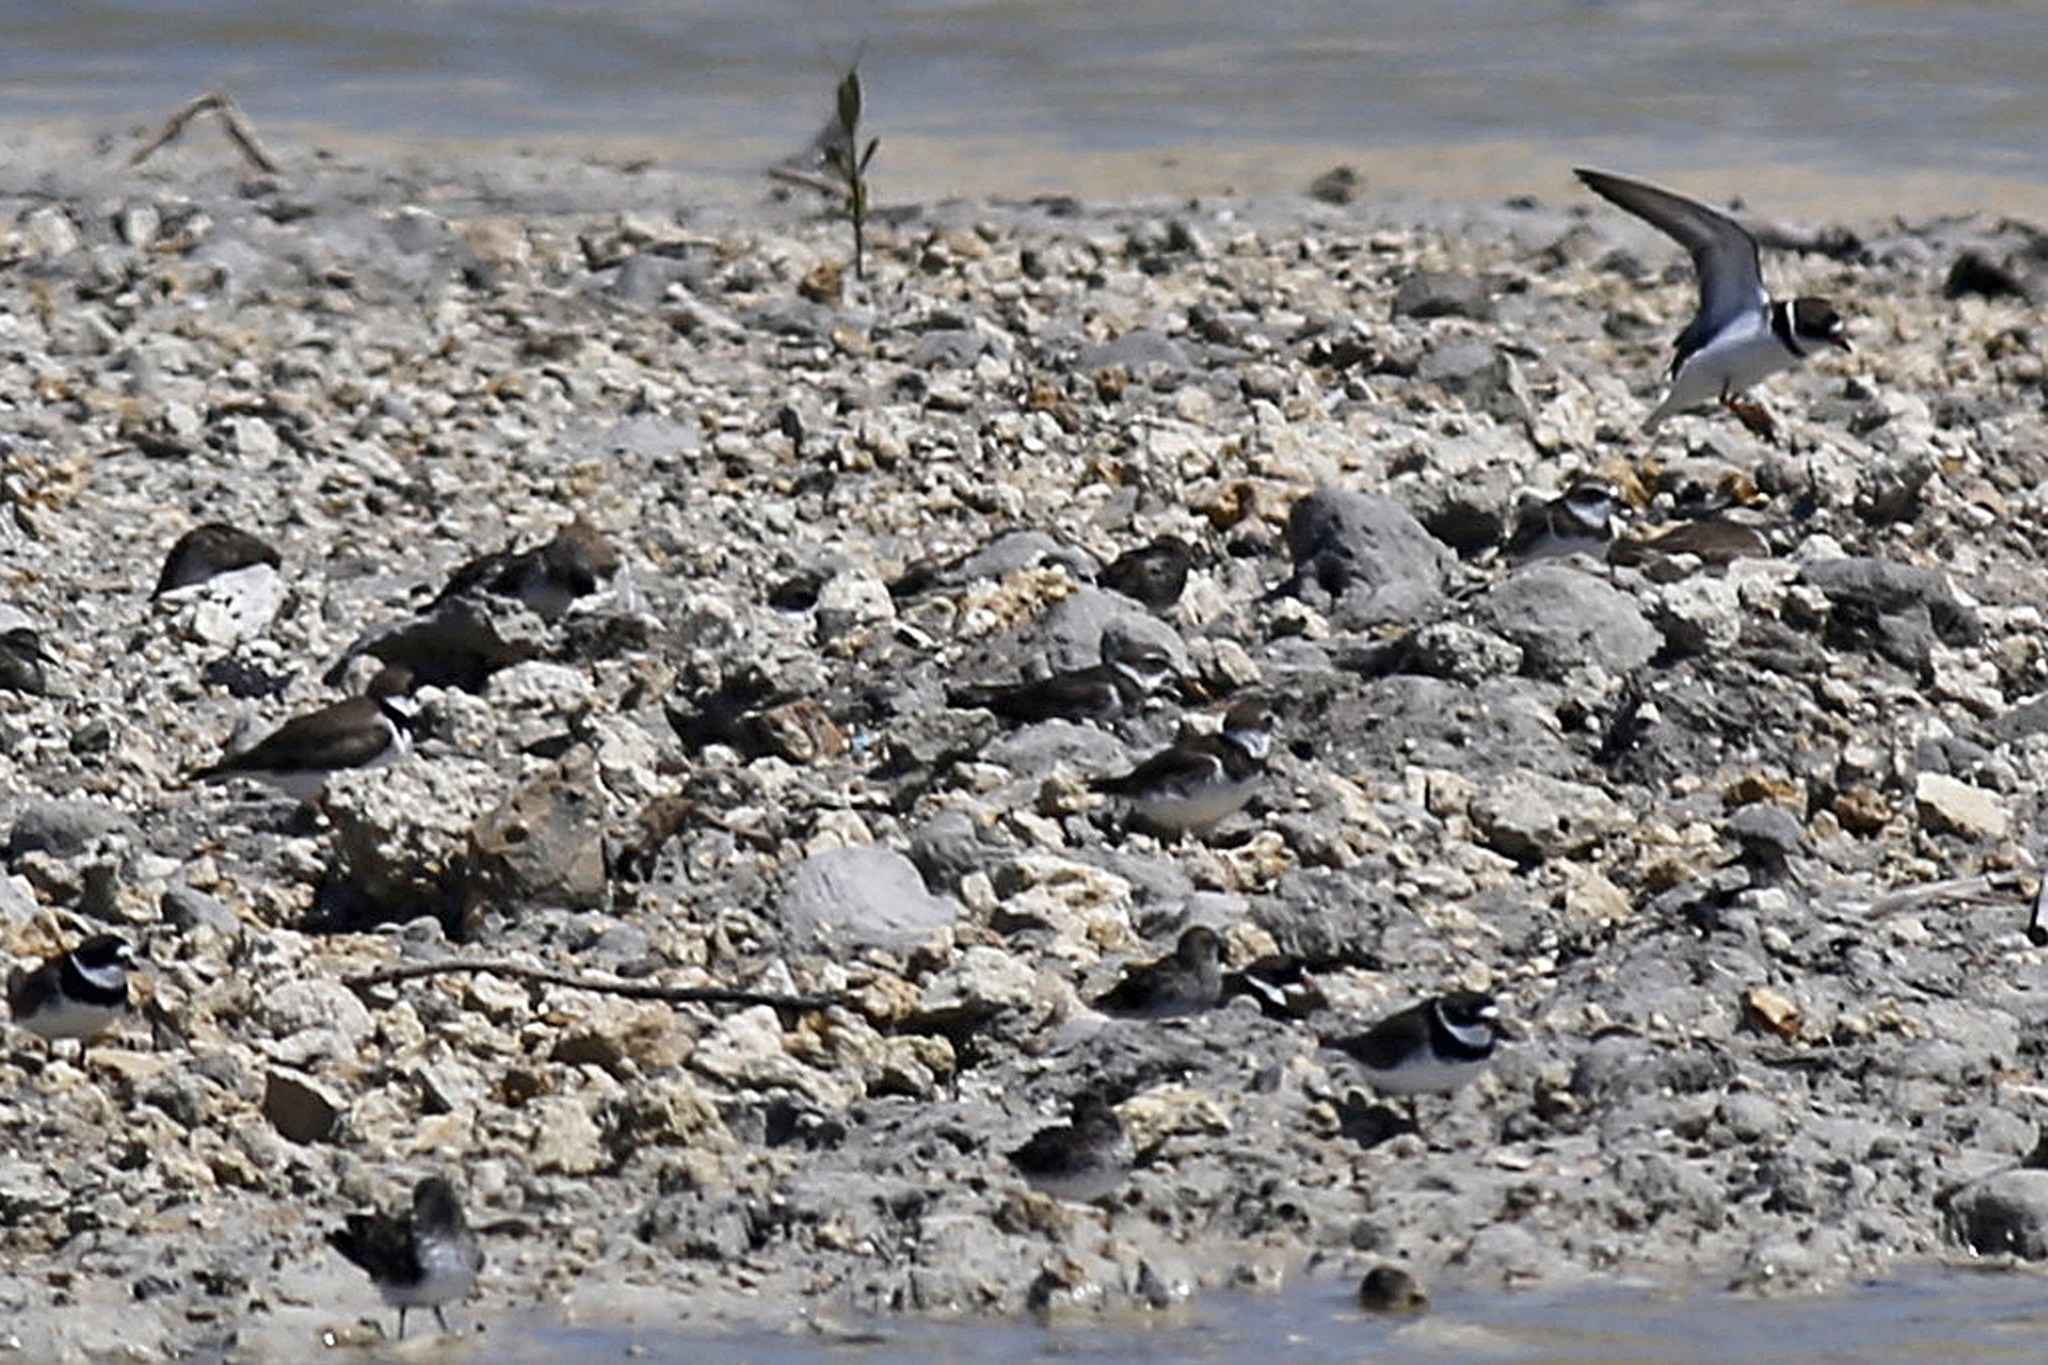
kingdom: Animalia
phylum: Chordata
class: Aves
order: Charadriiformes
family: Charadriidae
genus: Charadrius
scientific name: Charadrius semipalmatus
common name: Semipalmated plover
